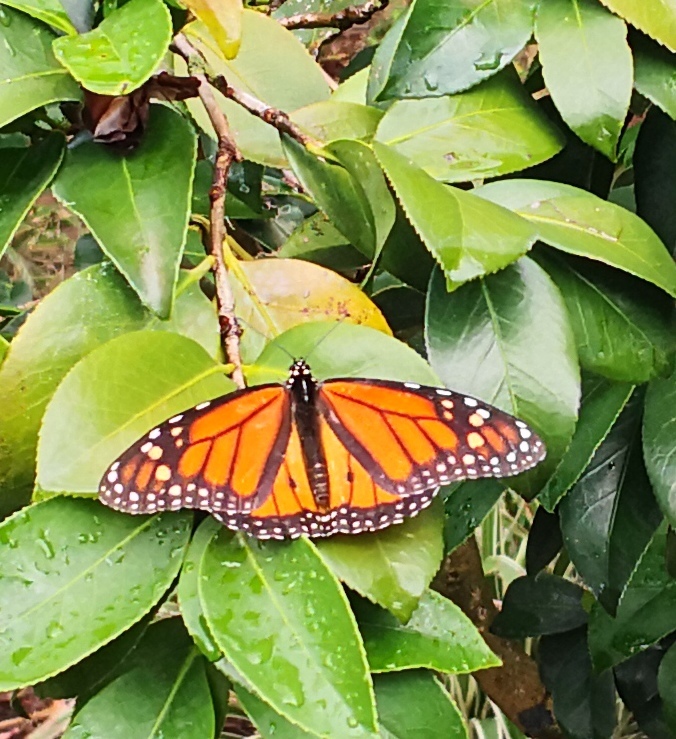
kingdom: Animalia
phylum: Arthropoda
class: Insecta
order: Lepidoptera
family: Nymphalidae
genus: Danaus
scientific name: Danaus plexippus
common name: Monarch
